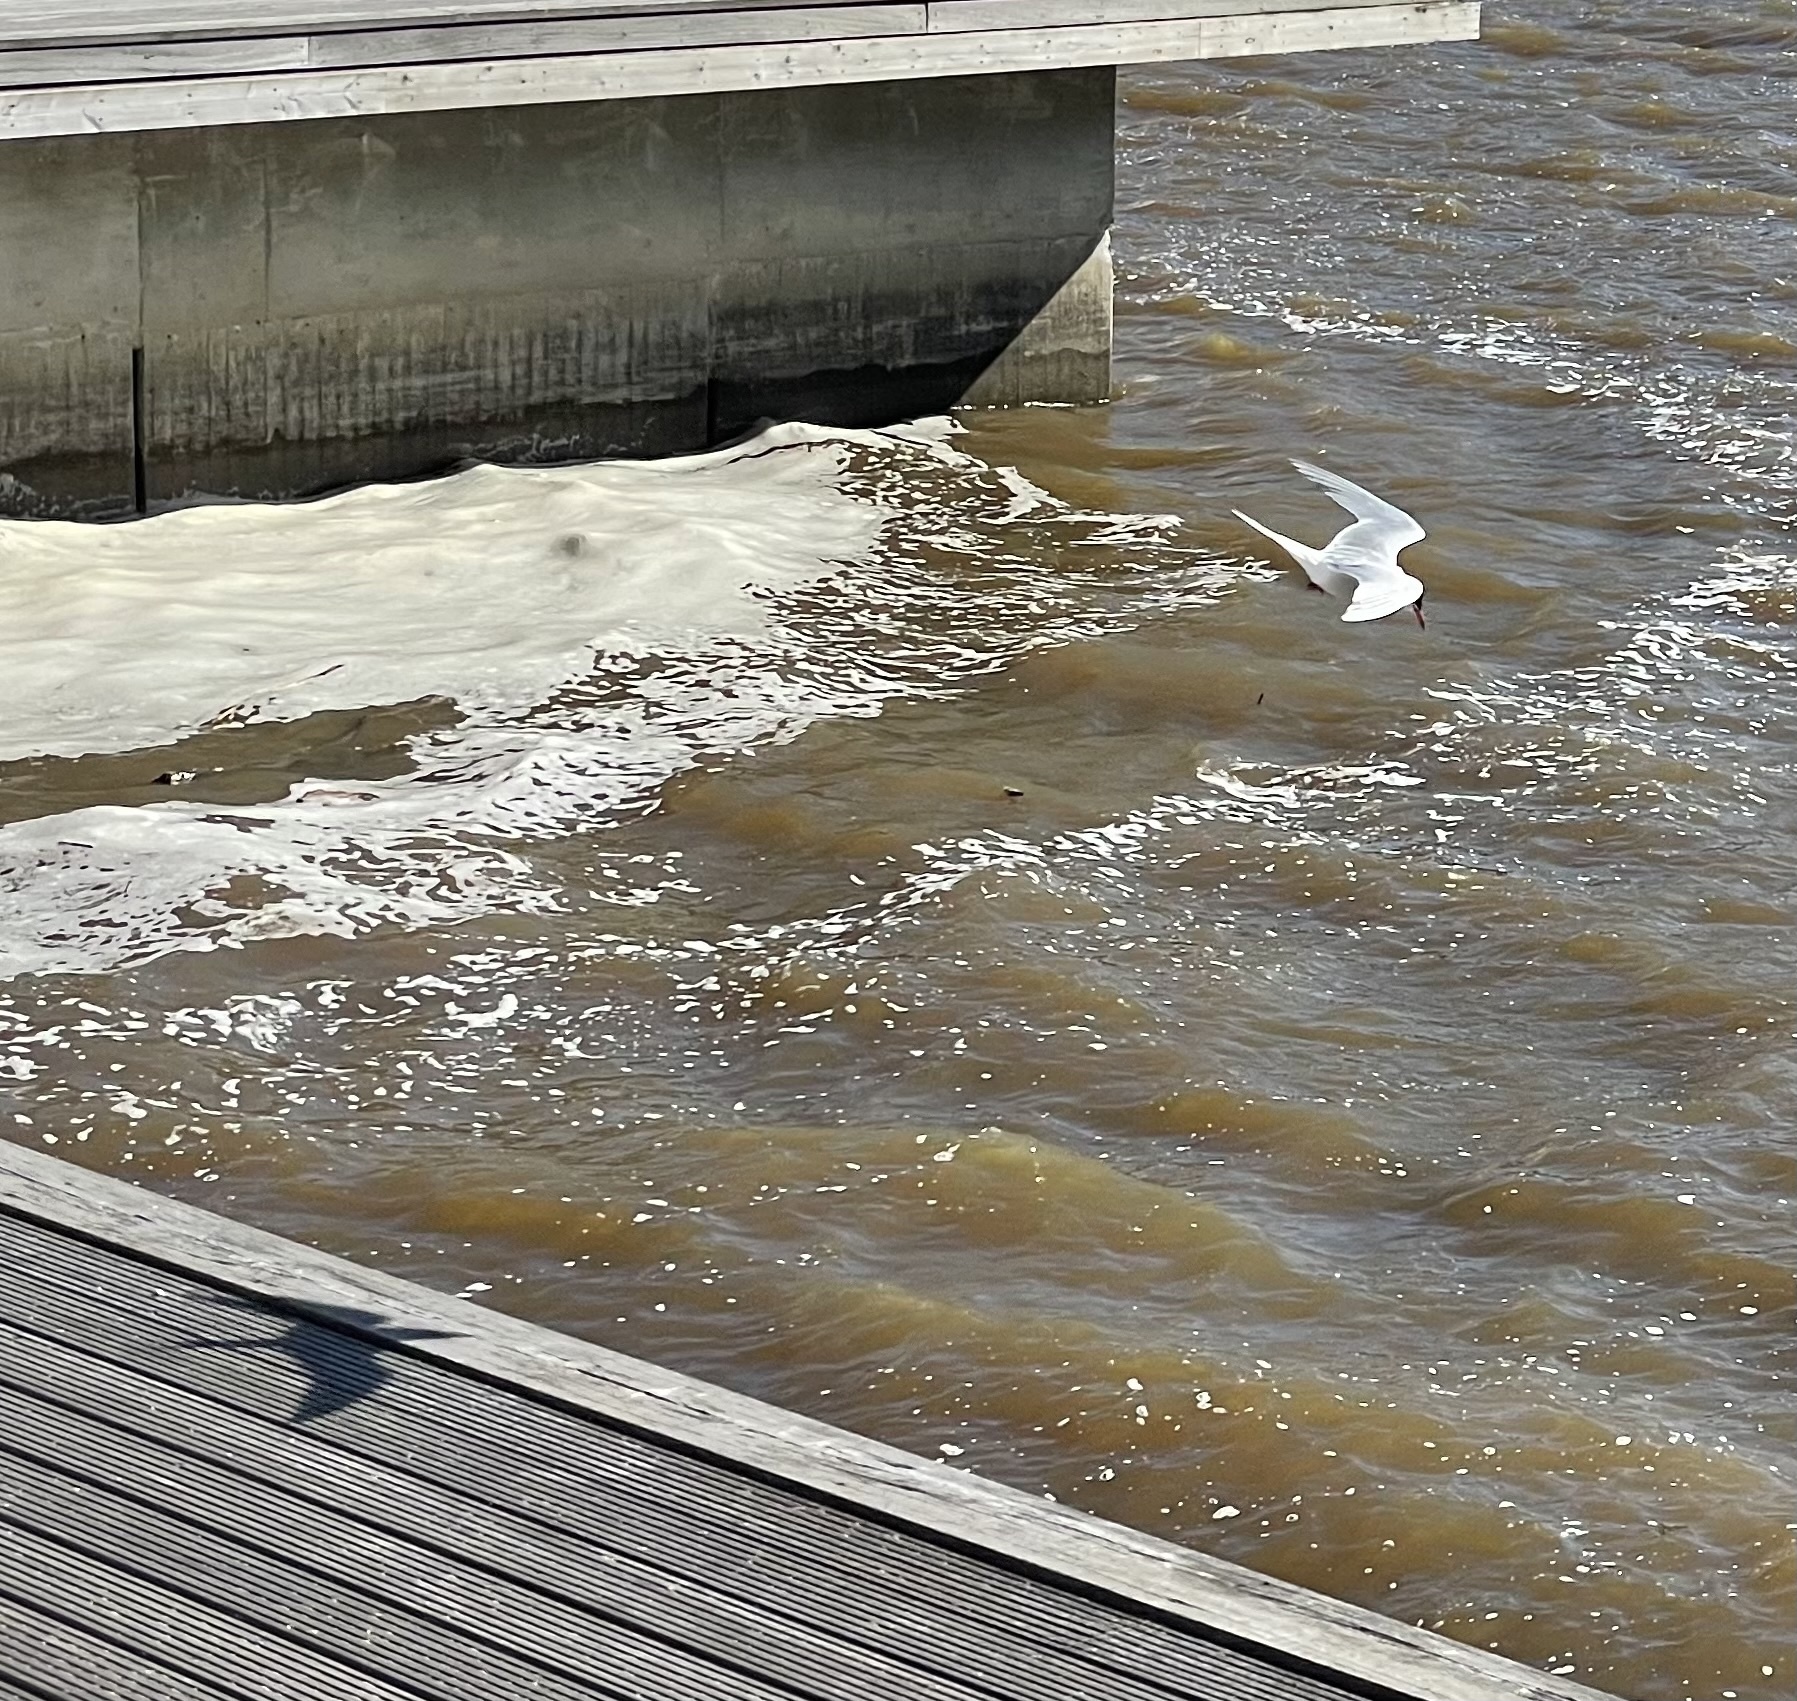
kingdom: Animalia
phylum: Chordata
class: Aves
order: Charadriiformes
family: Laridae
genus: Sterna
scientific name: Sterna hirundo
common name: Common tern
